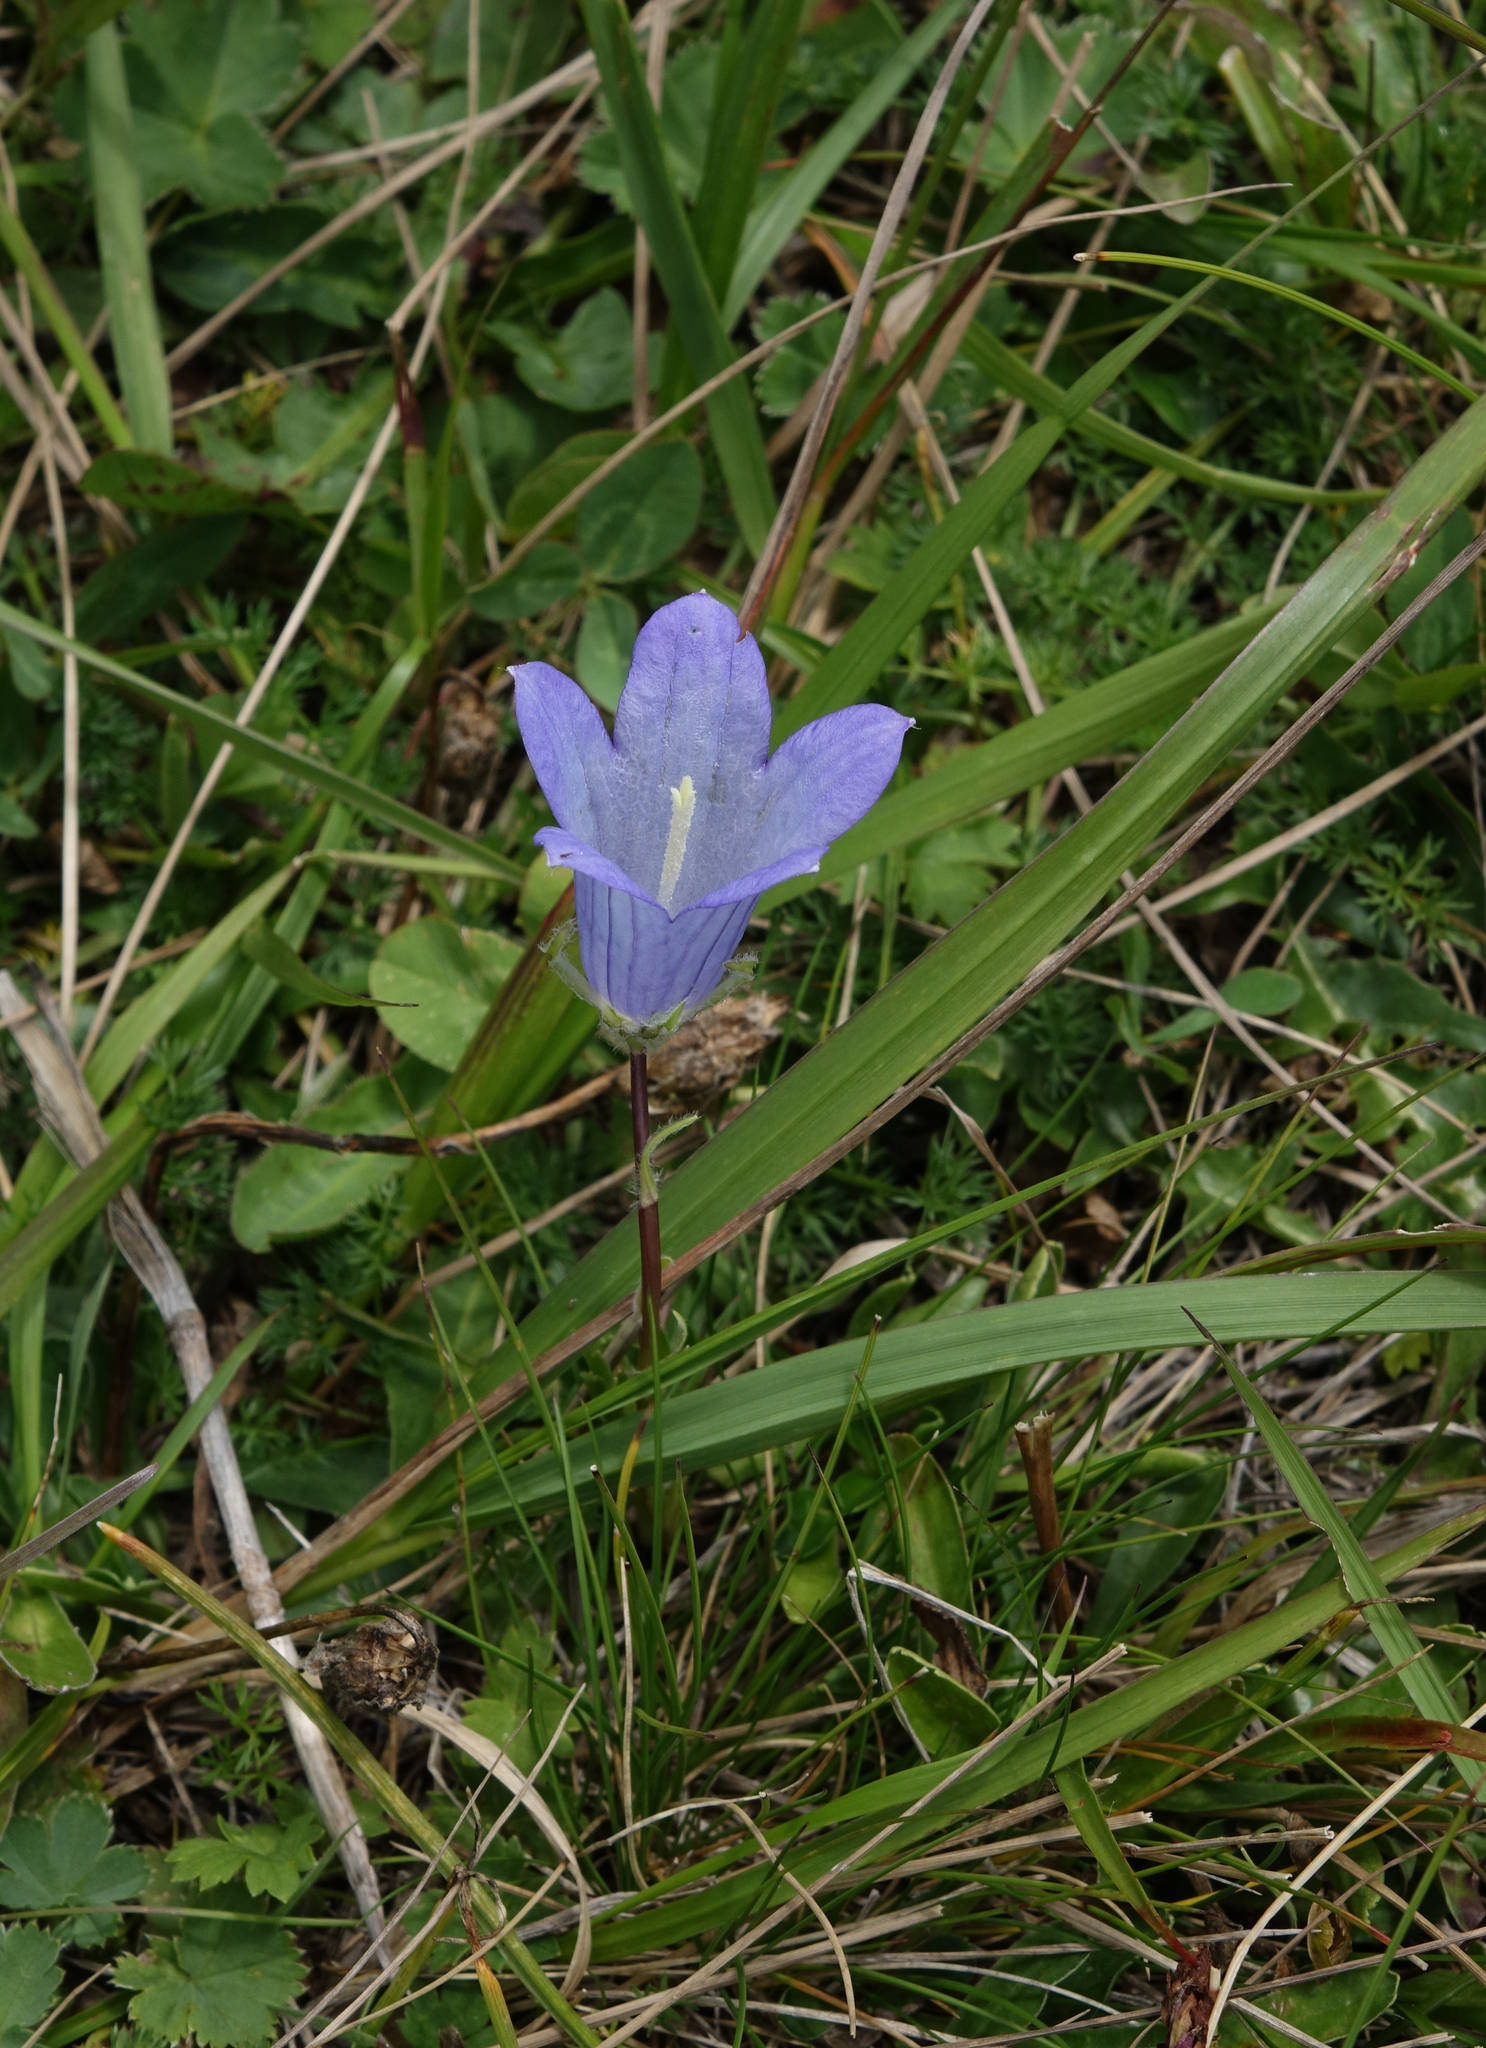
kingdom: Plantae
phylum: Tracheophyta
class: Magnoliopsida
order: Asterales
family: Campanulaceae
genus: Campanula
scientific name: Campanula tridentata
